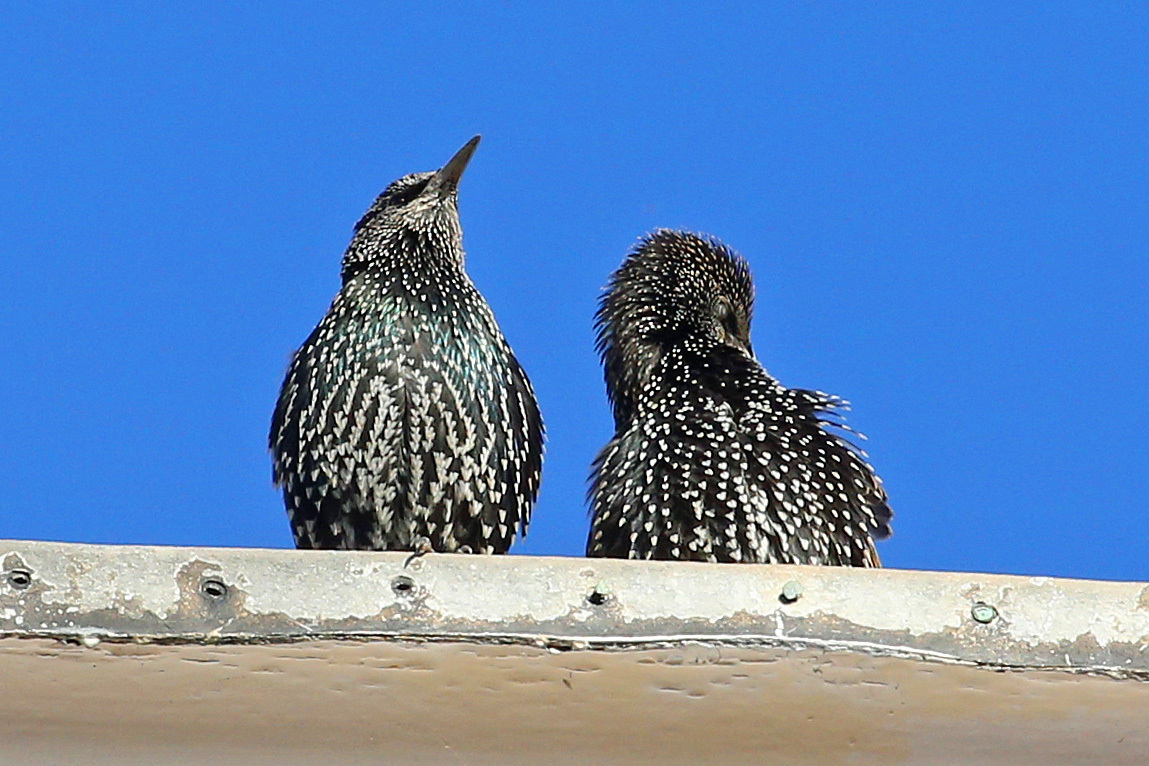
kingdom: Animalia
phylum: Chordata
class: Aves
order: Passeriformes
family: Sturnidae
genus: Sturnus
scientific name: Sturnus vulgaris
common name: Common starling
